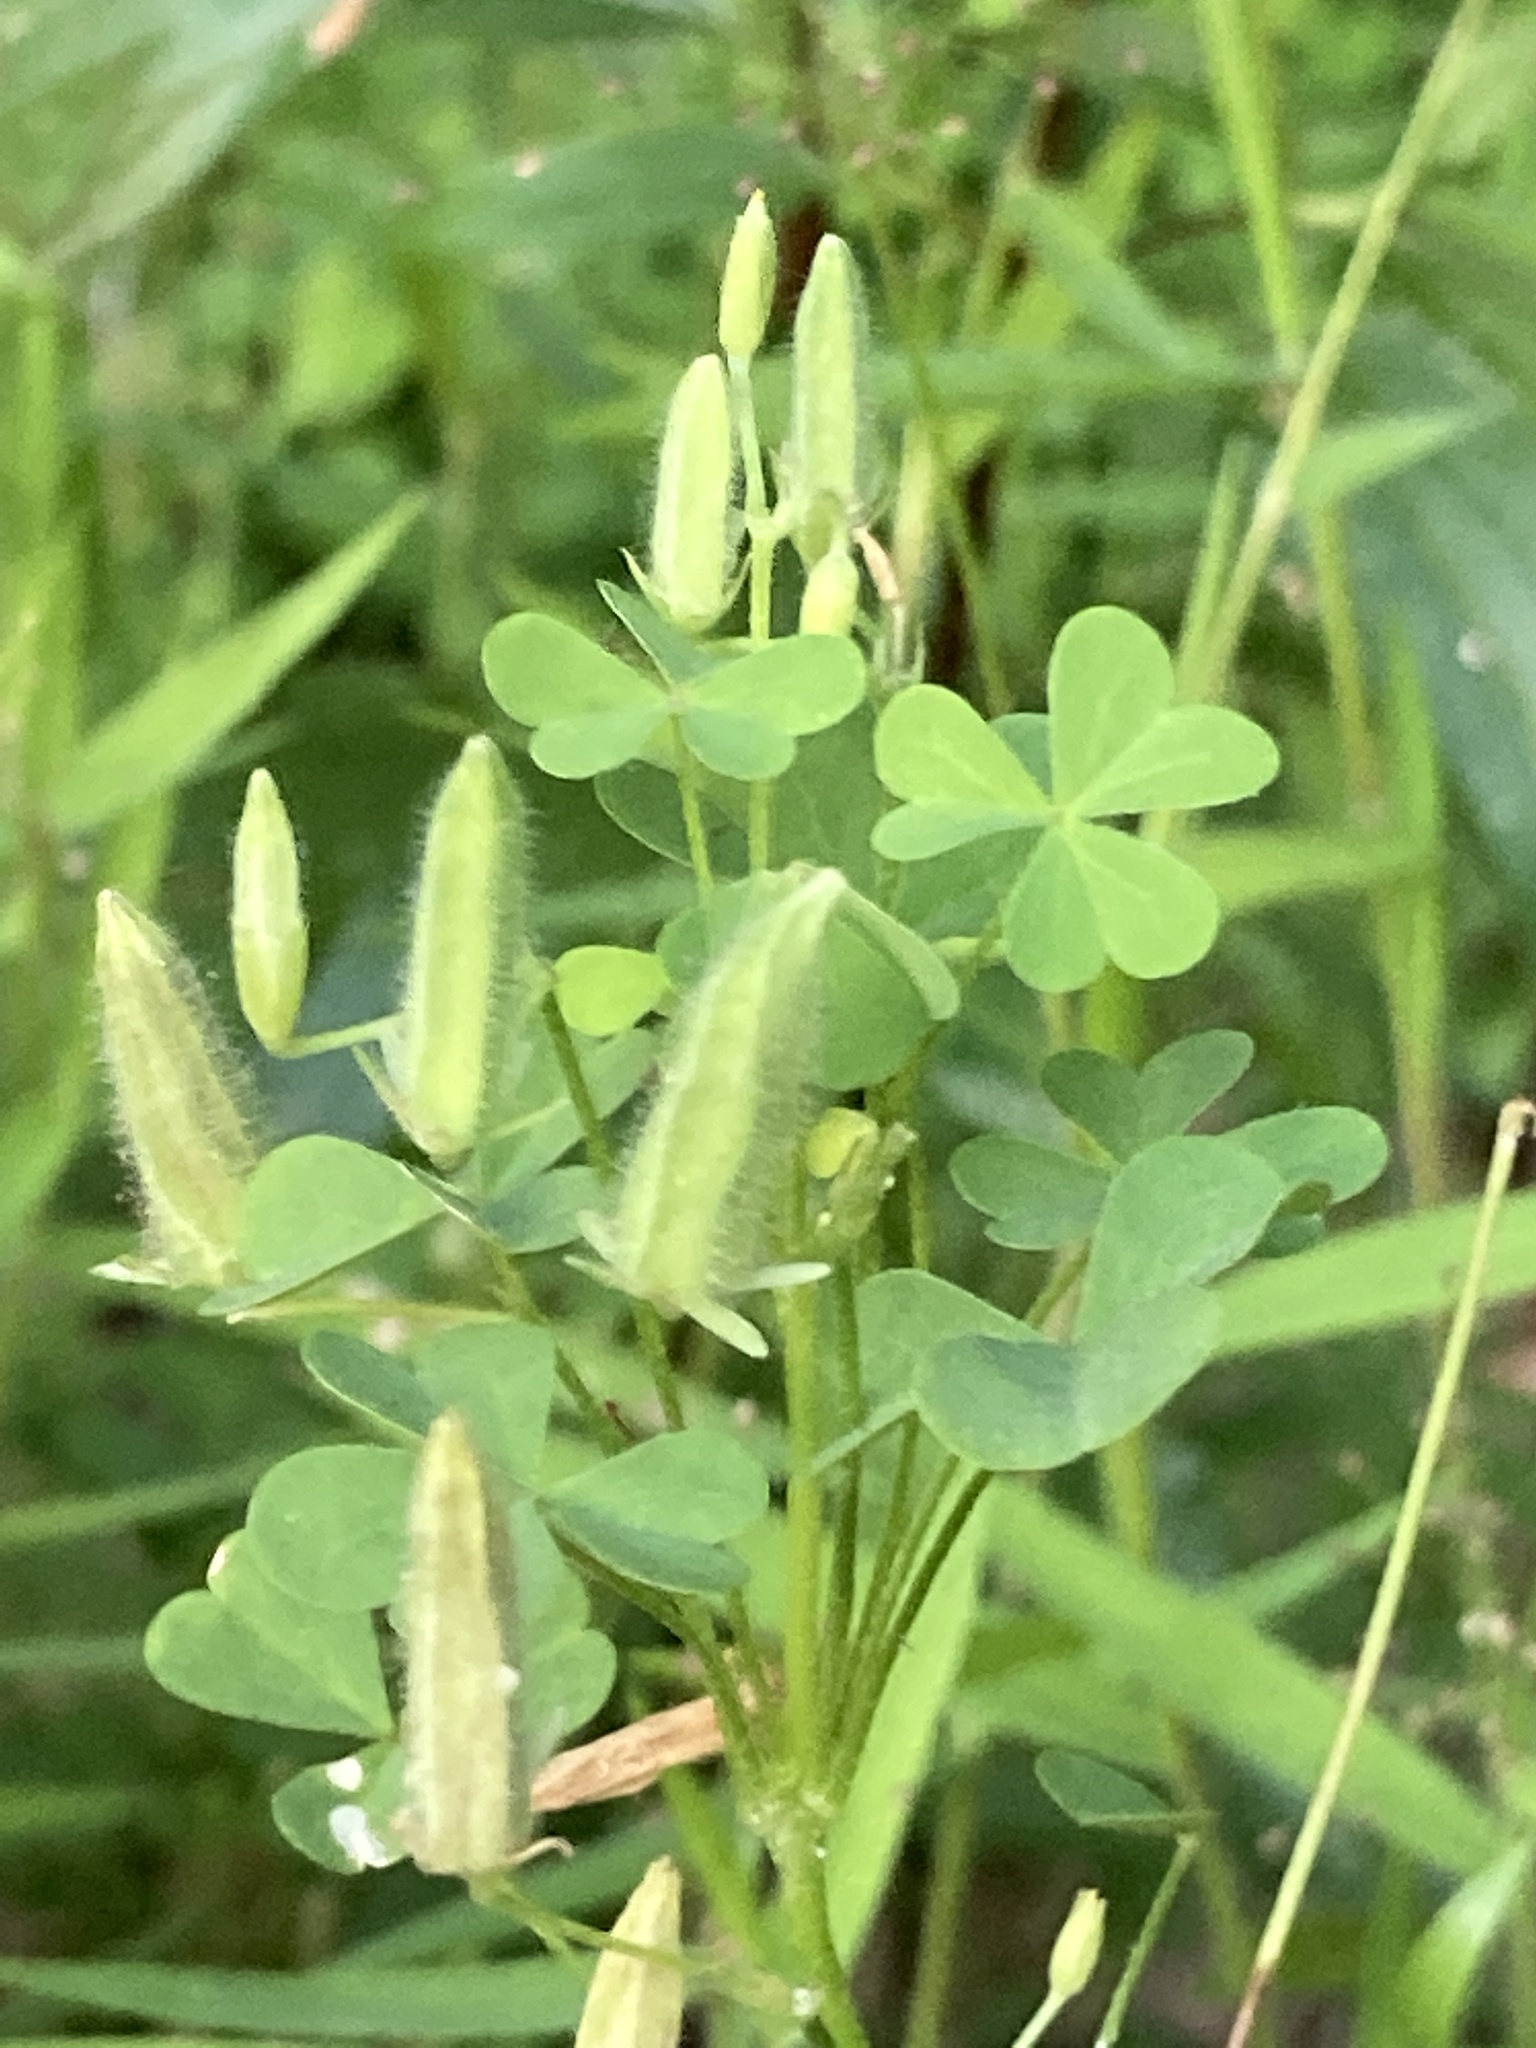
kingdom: Plantae
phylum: Tracheophyta
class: Magnoliopsida
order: Oxalidales
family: Oxalidaceae
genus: Oxalis
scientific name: Oxalis dillenii
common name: Sussex yellow-sorrel
